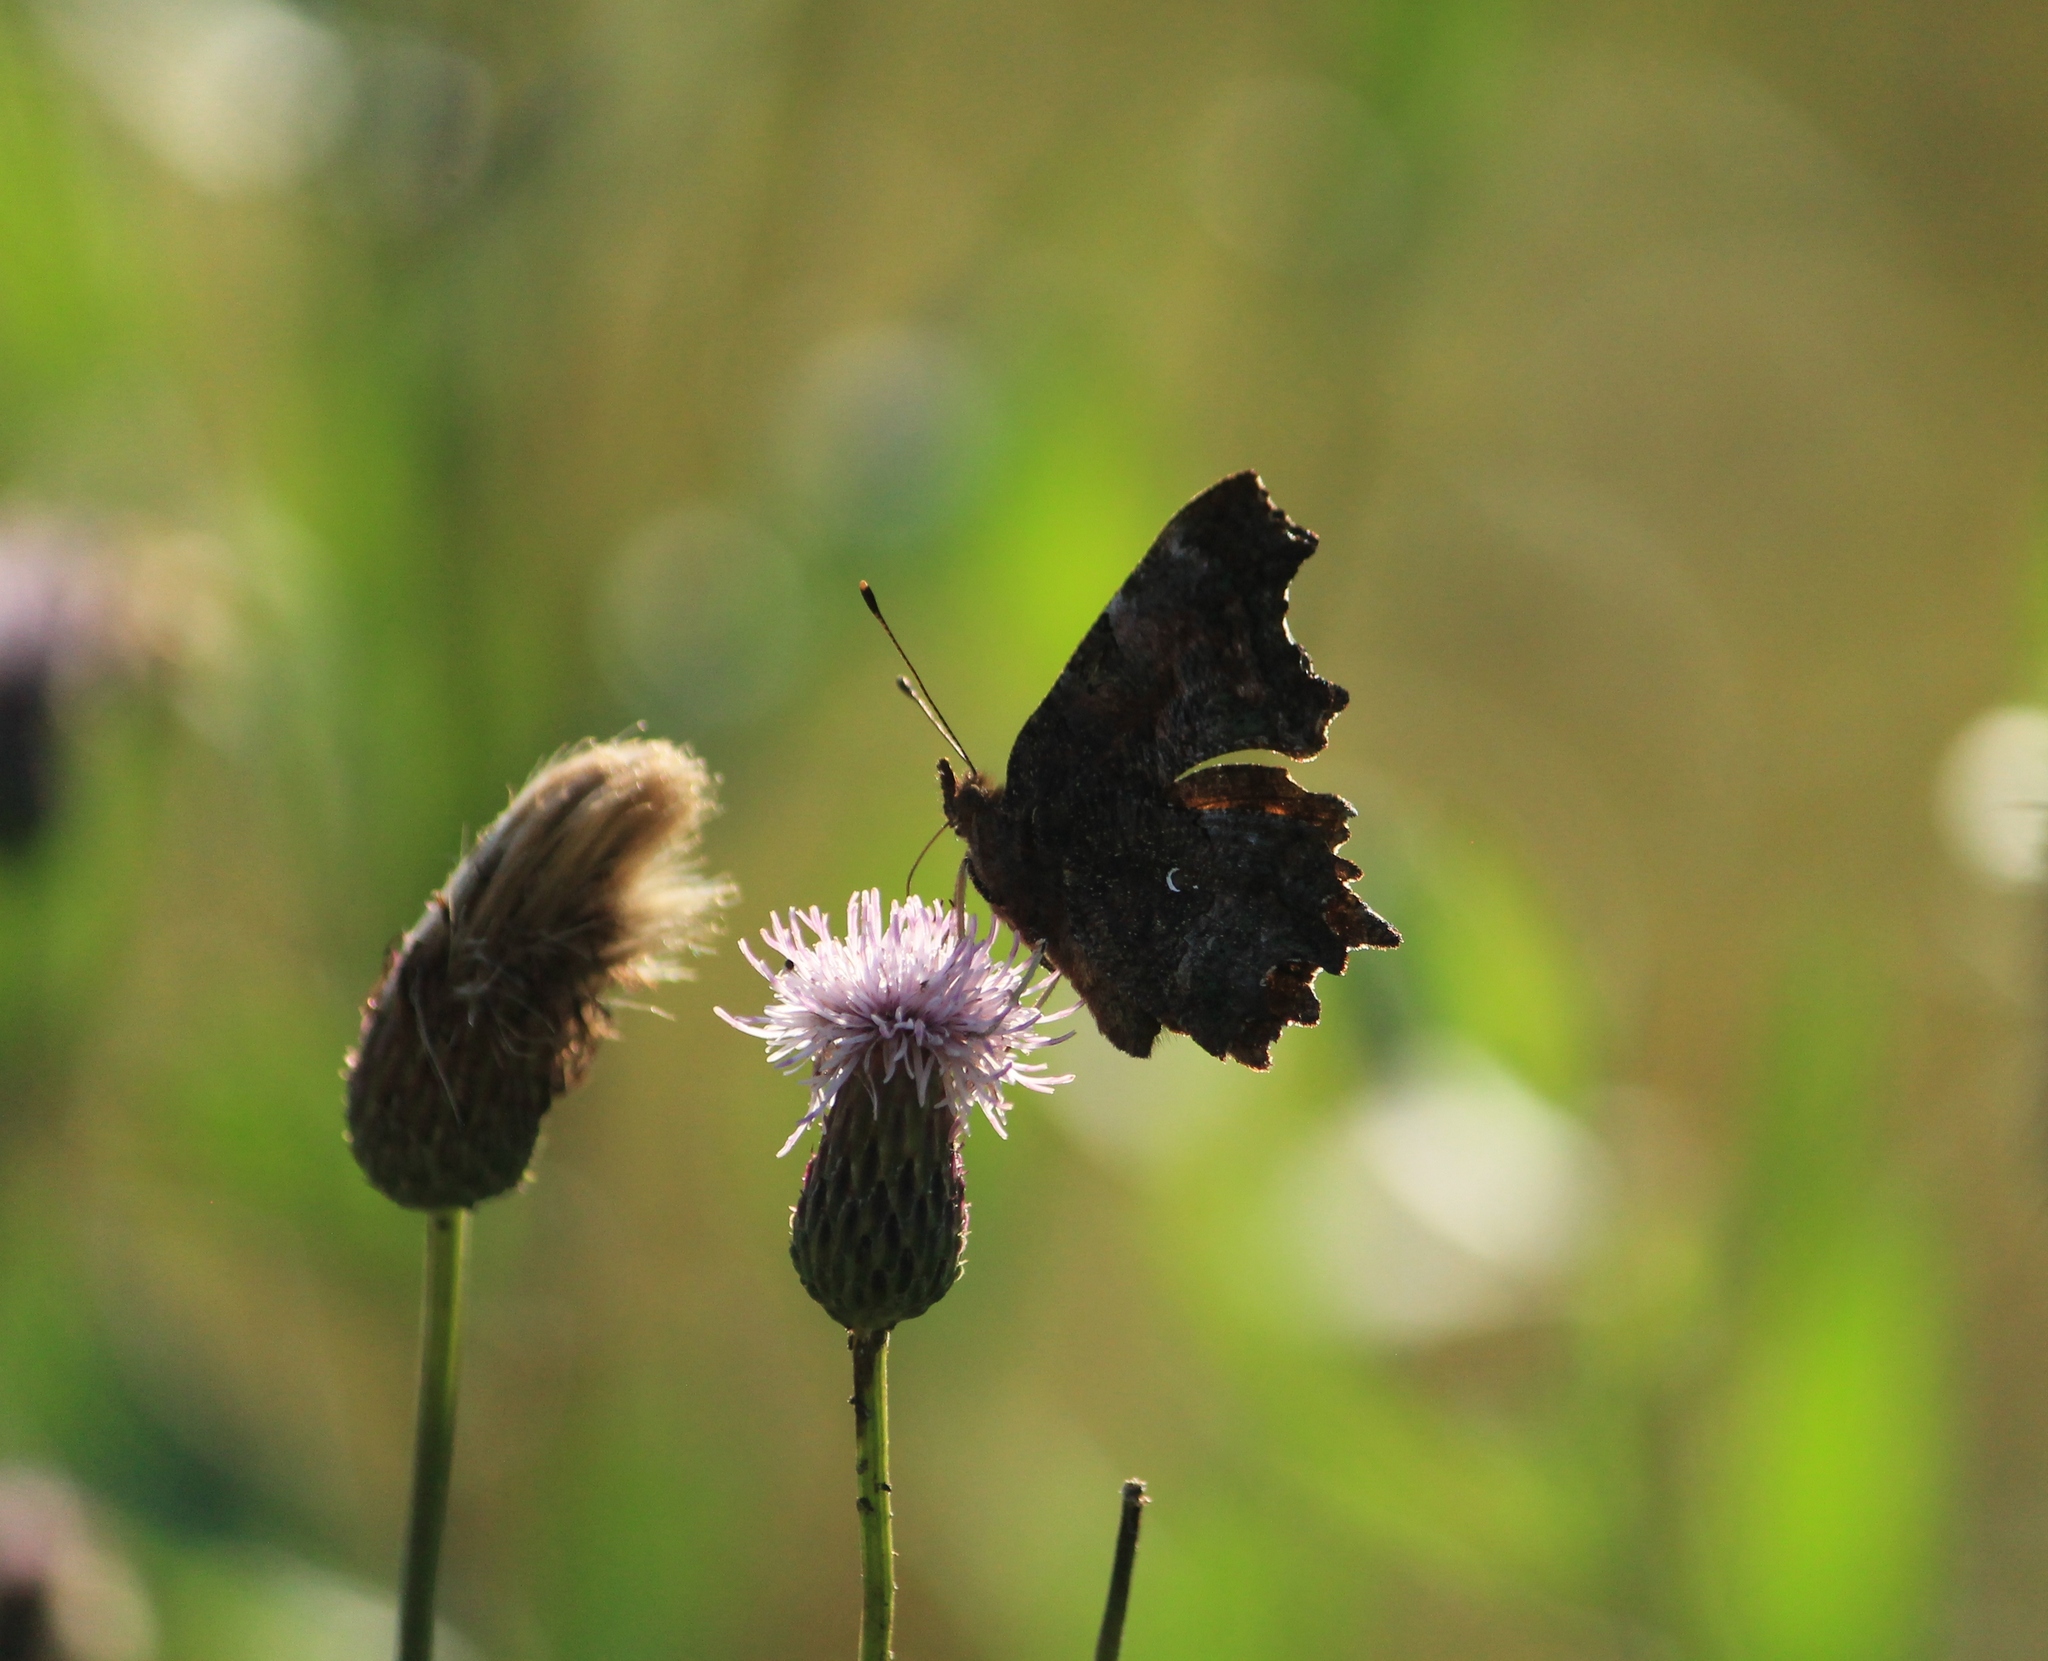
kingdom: Animalia
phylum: Arthropoda
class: Insecta
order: Lepidoptera
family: Nymphalidae
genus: Polygonia
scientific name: Polygonia c-album
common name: Comma
